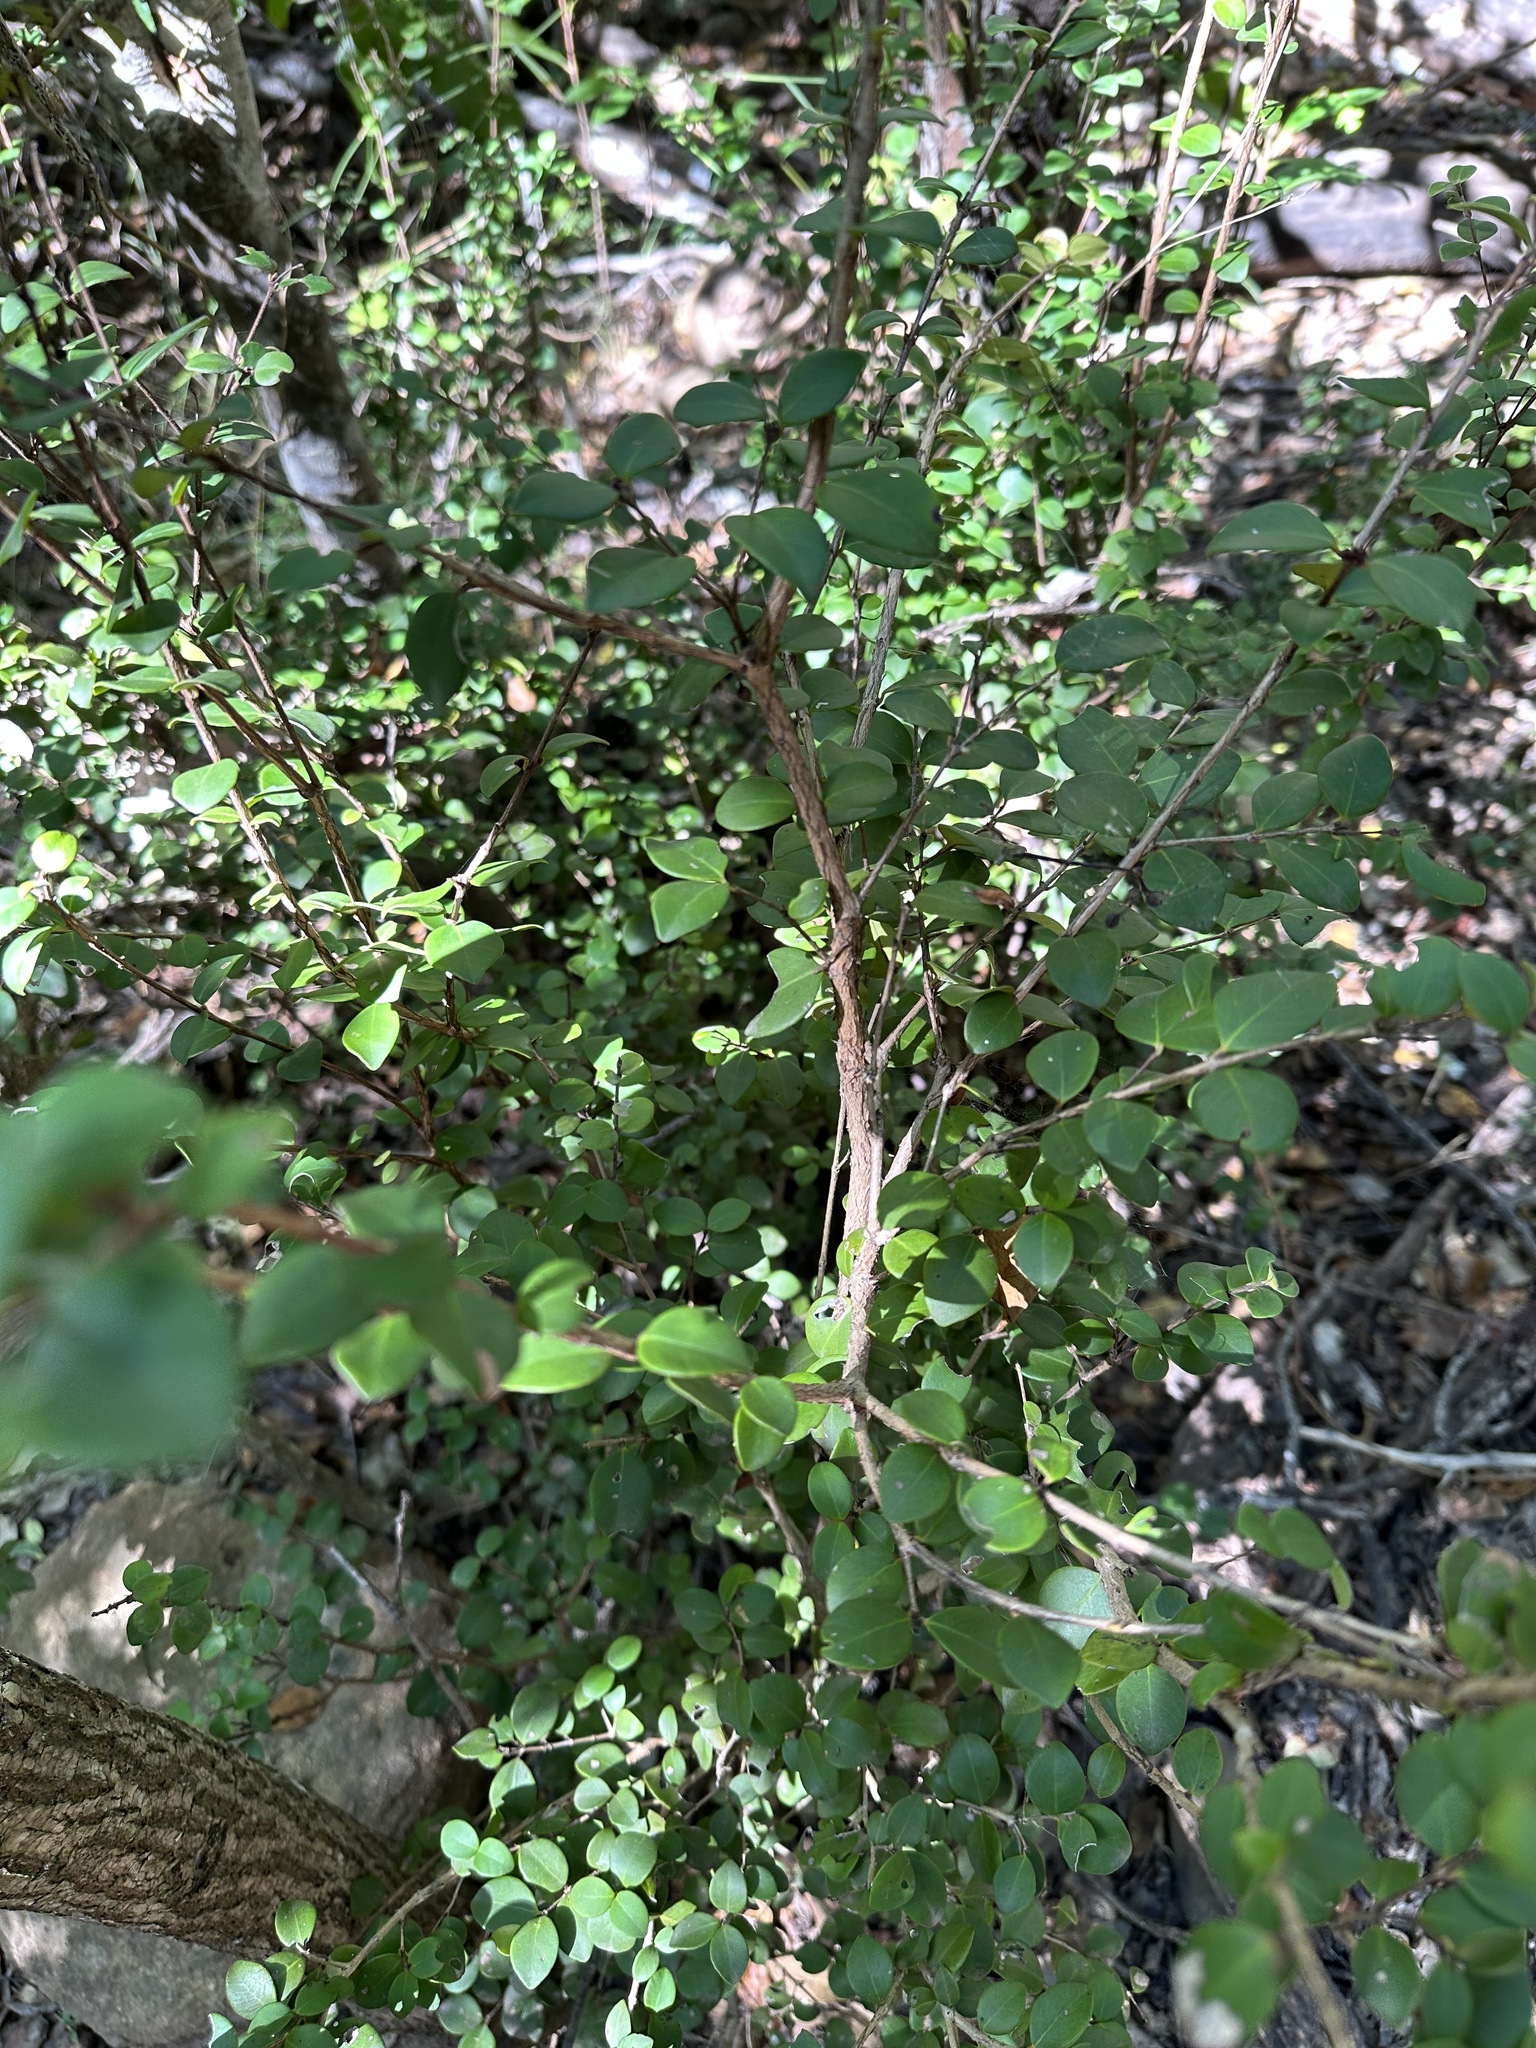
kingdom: Plantae
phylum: Tracheophyta
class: Magnoliopsida
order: Myrtales
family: Myrtaceae
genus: Eugenia
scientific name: Eugenia reinwardtiana
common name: Cedar bay-cherry
